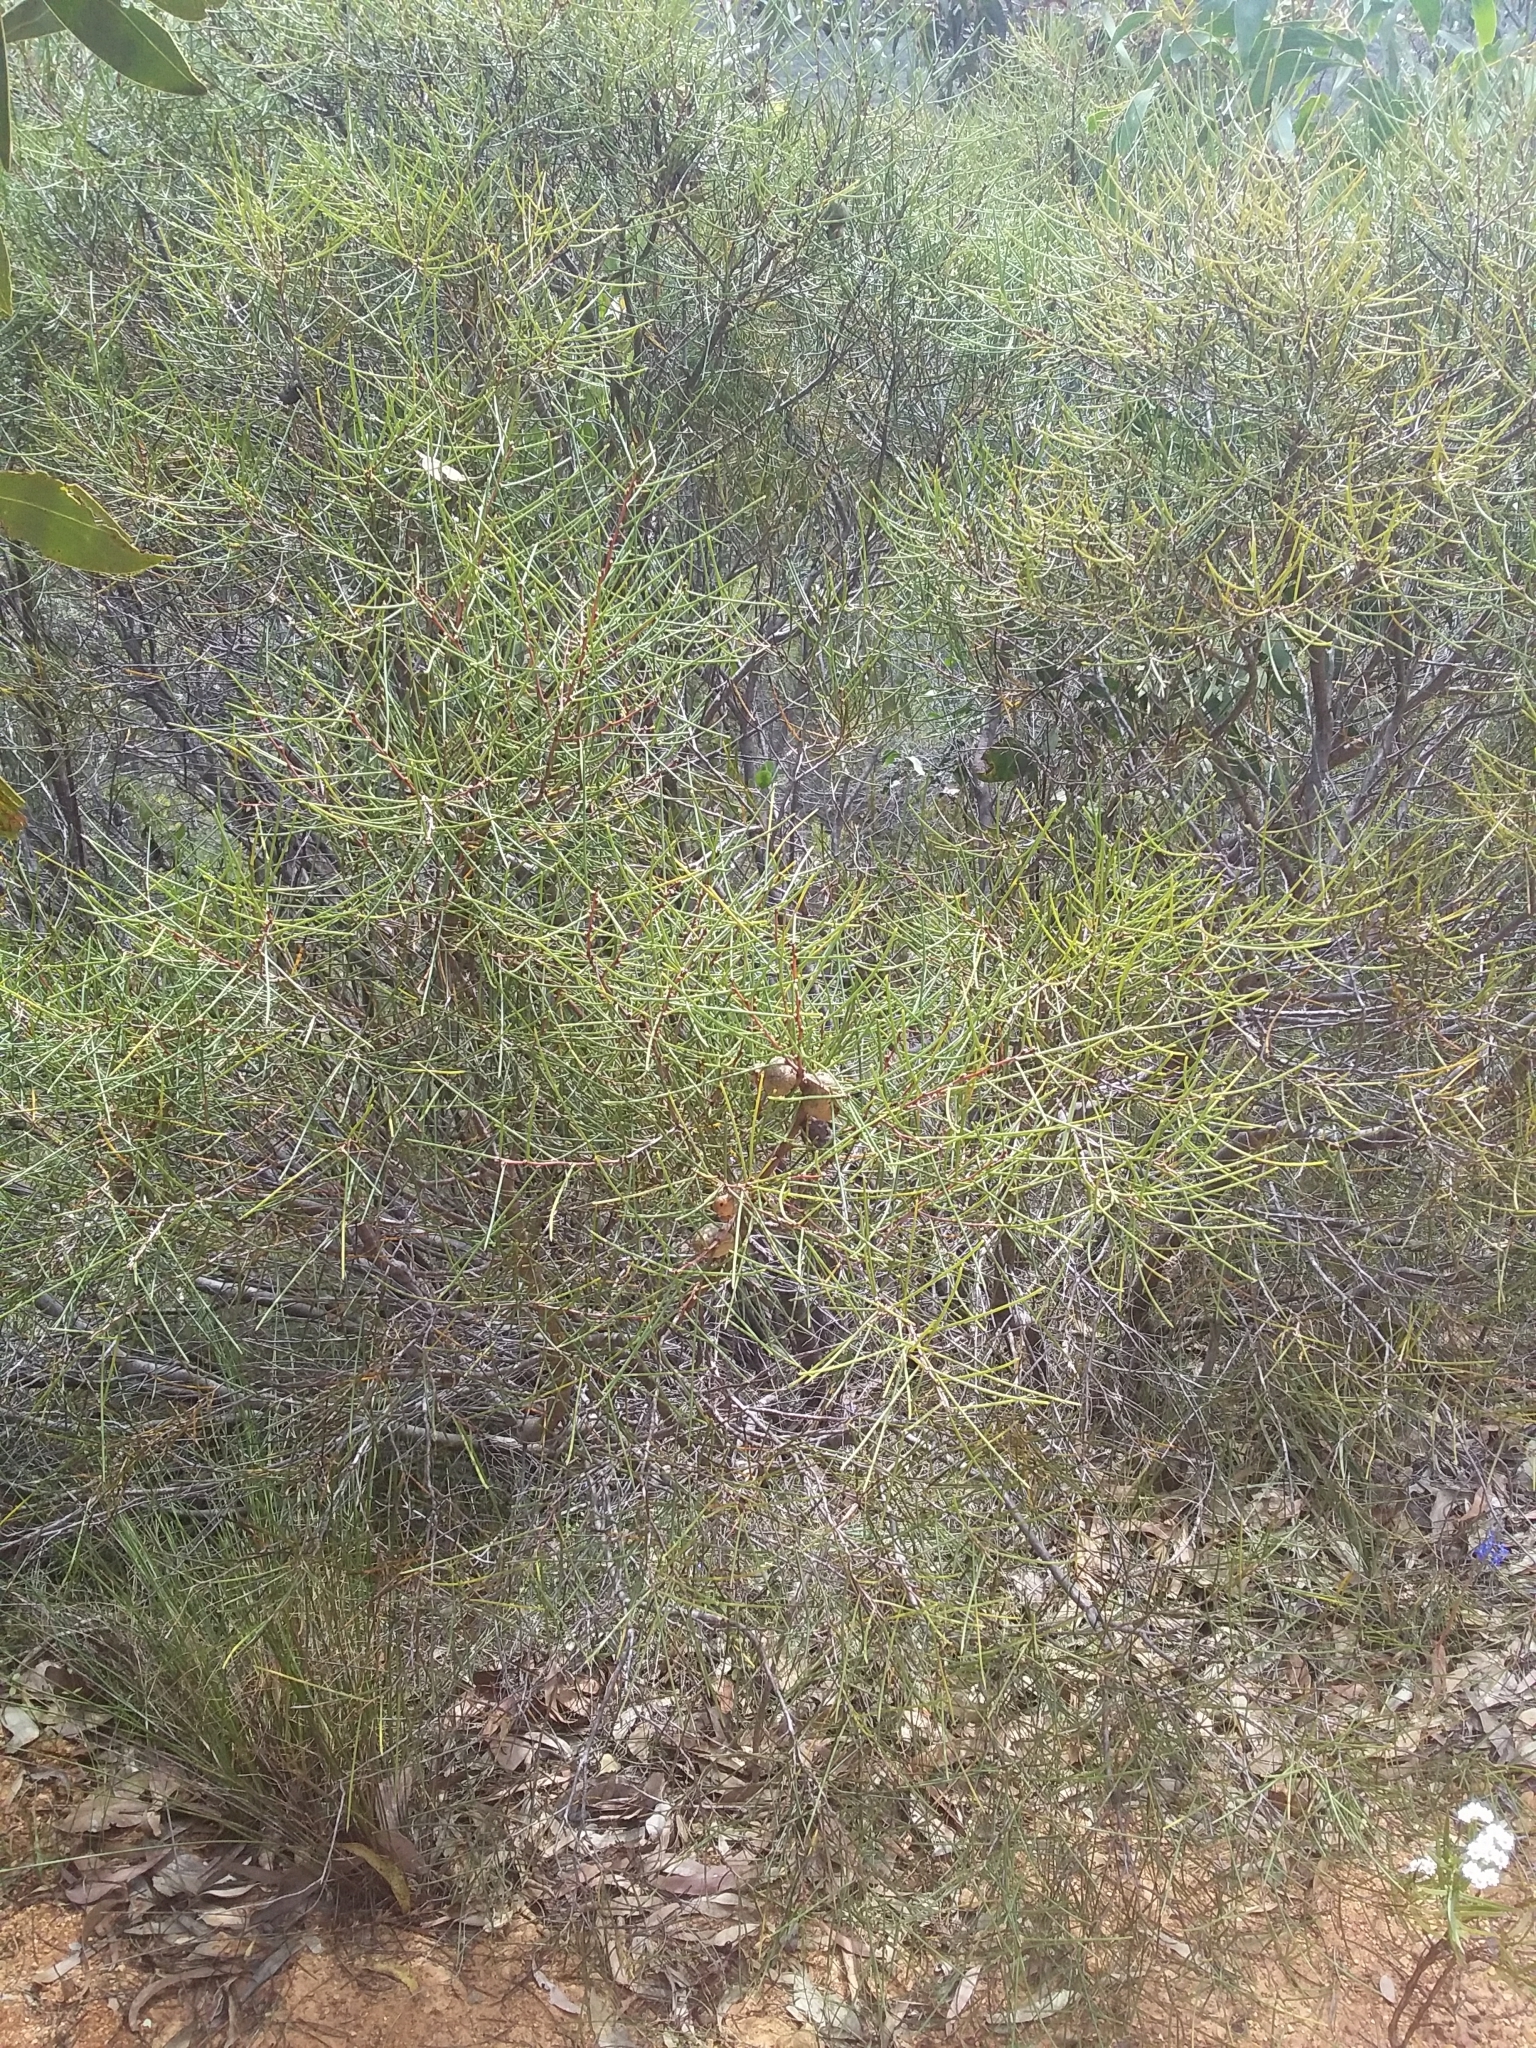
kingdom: Plantae
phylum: Tracheophyta
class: Magnoliopsida
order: Proteales
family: Proteaceae
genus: Hakea
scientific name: Hakea rostrata
